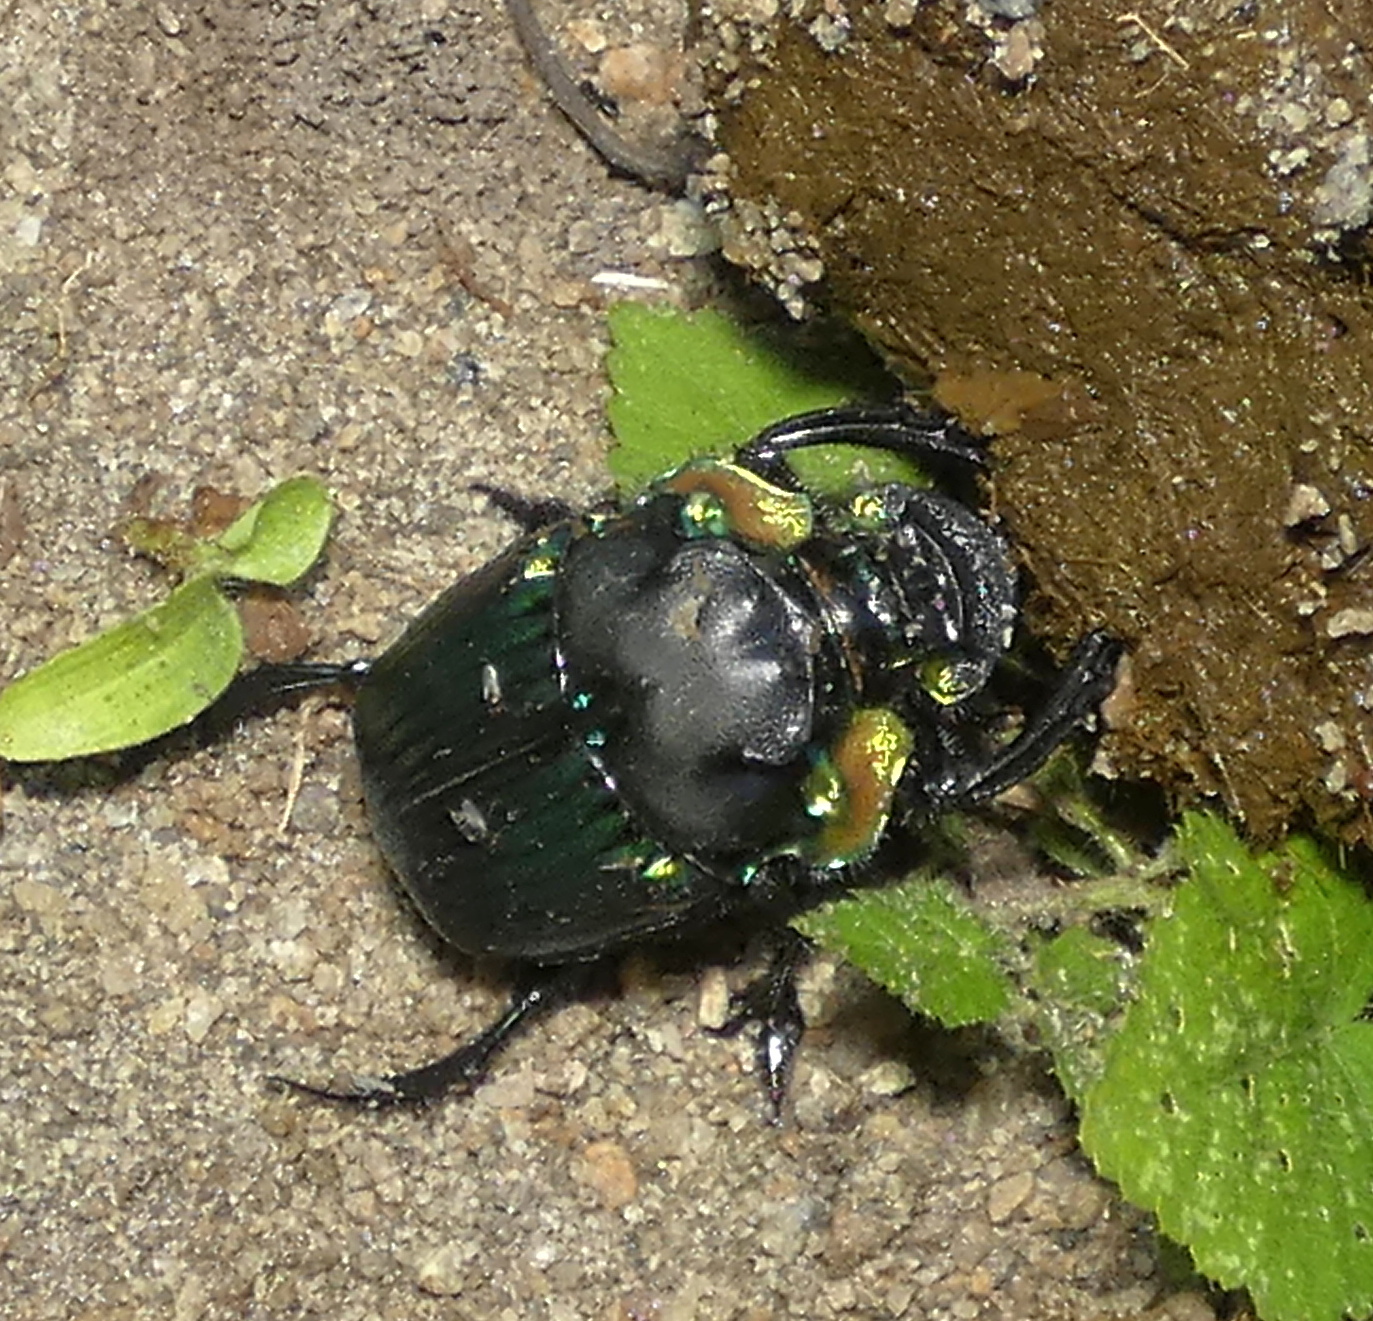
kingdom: Animalia
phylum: Arthropoda
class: Insecta
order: Coleoptera
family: Scarabaeidae
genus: Diabroctis
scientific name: Diabroctis mimas
